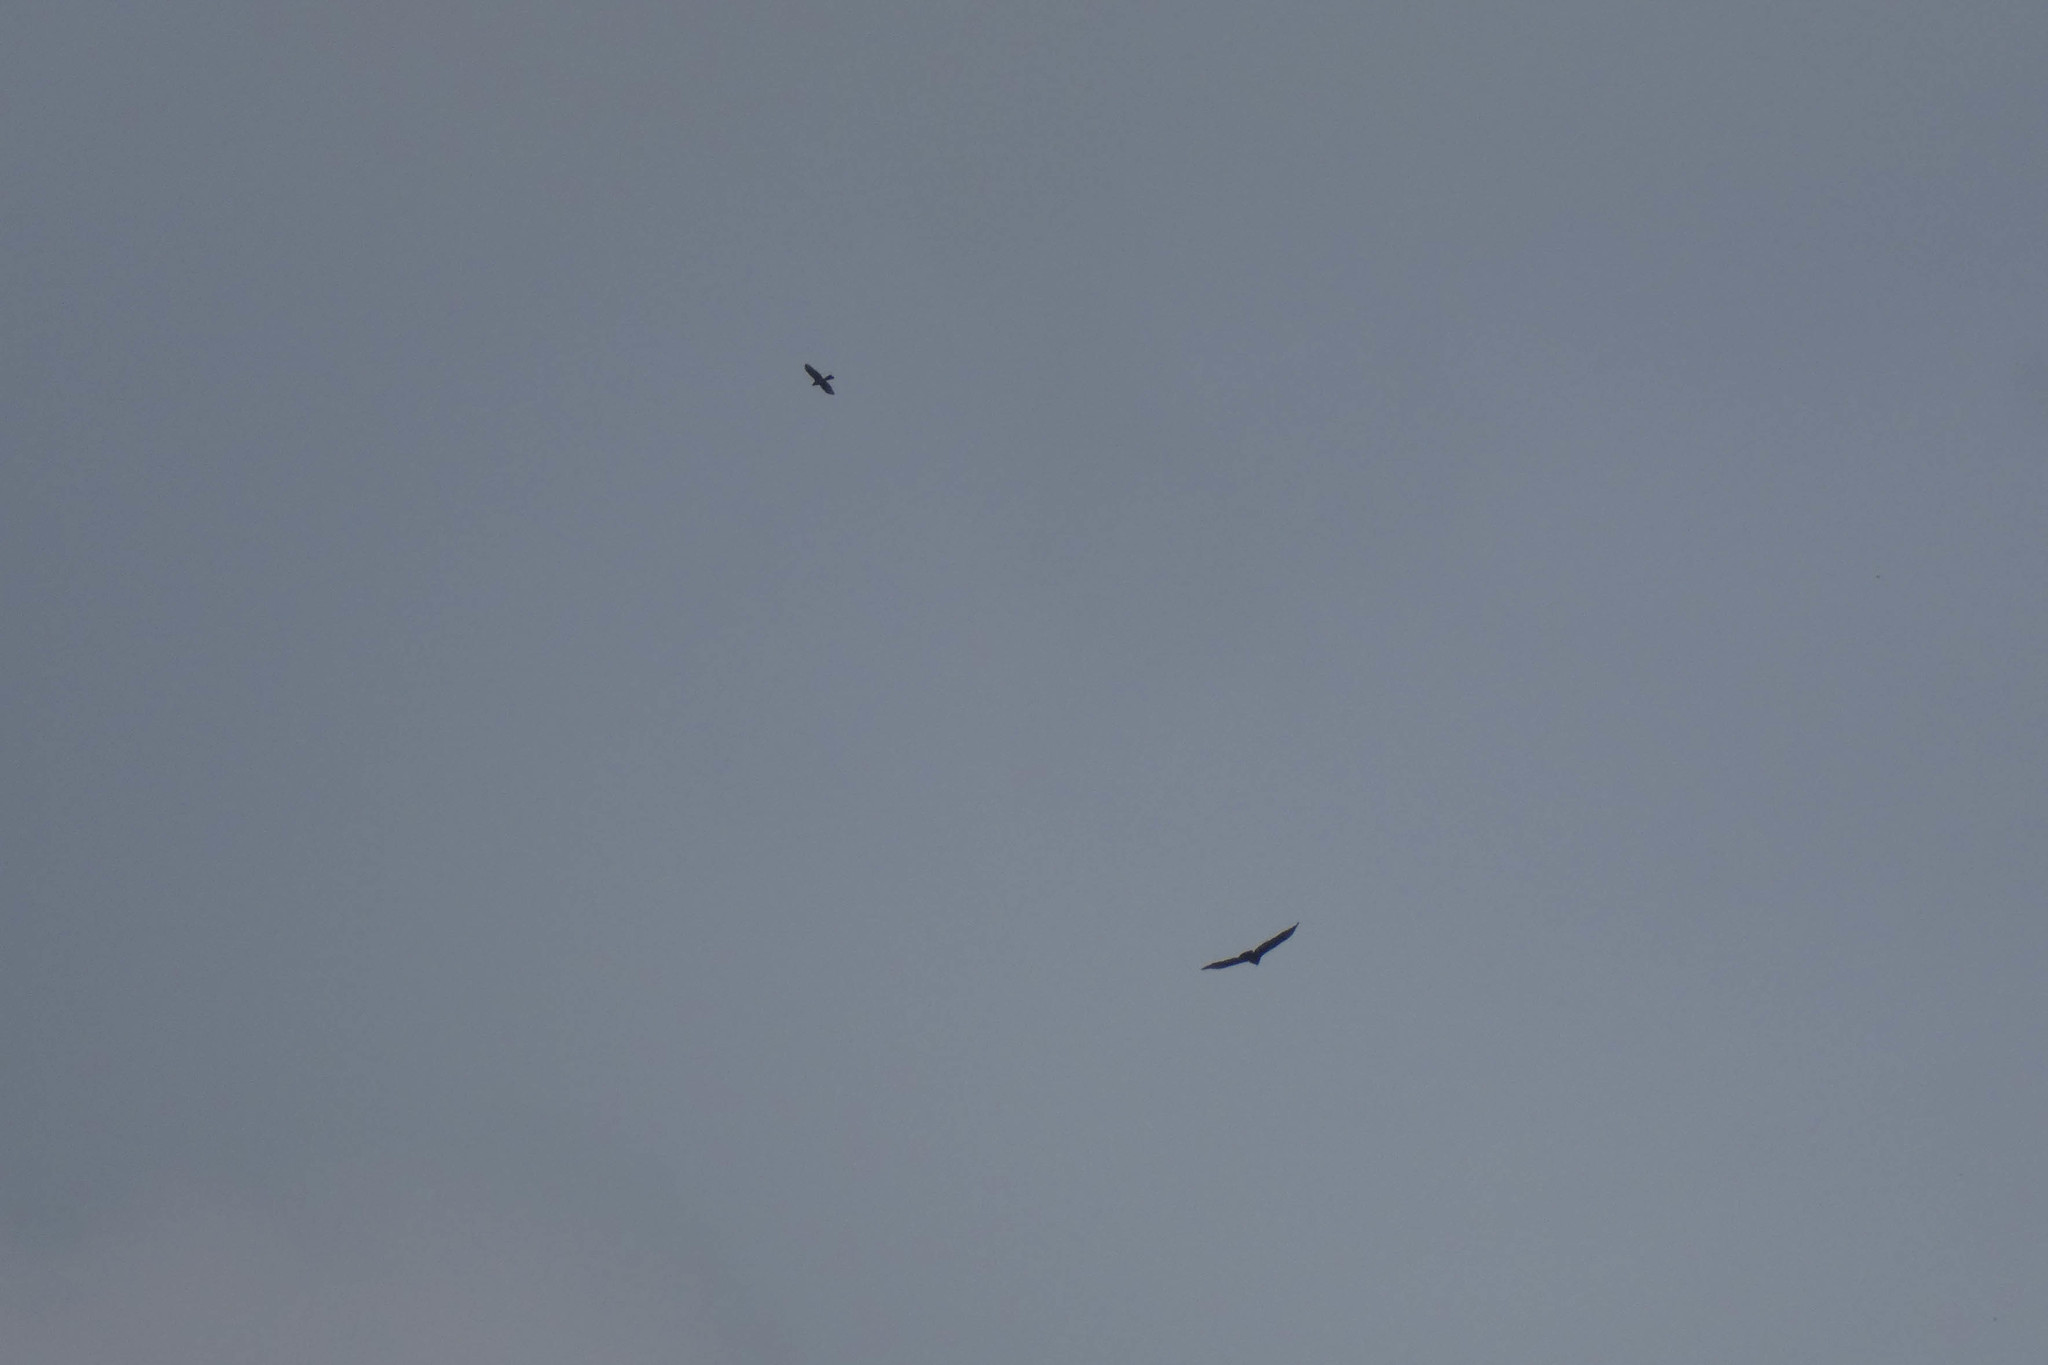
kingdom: Animalia
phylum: Chordata
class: Aves
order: Accipitriformes
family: Cathartidae
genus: Cathartes
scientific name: Cathartes aura
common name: Turkey vulture
